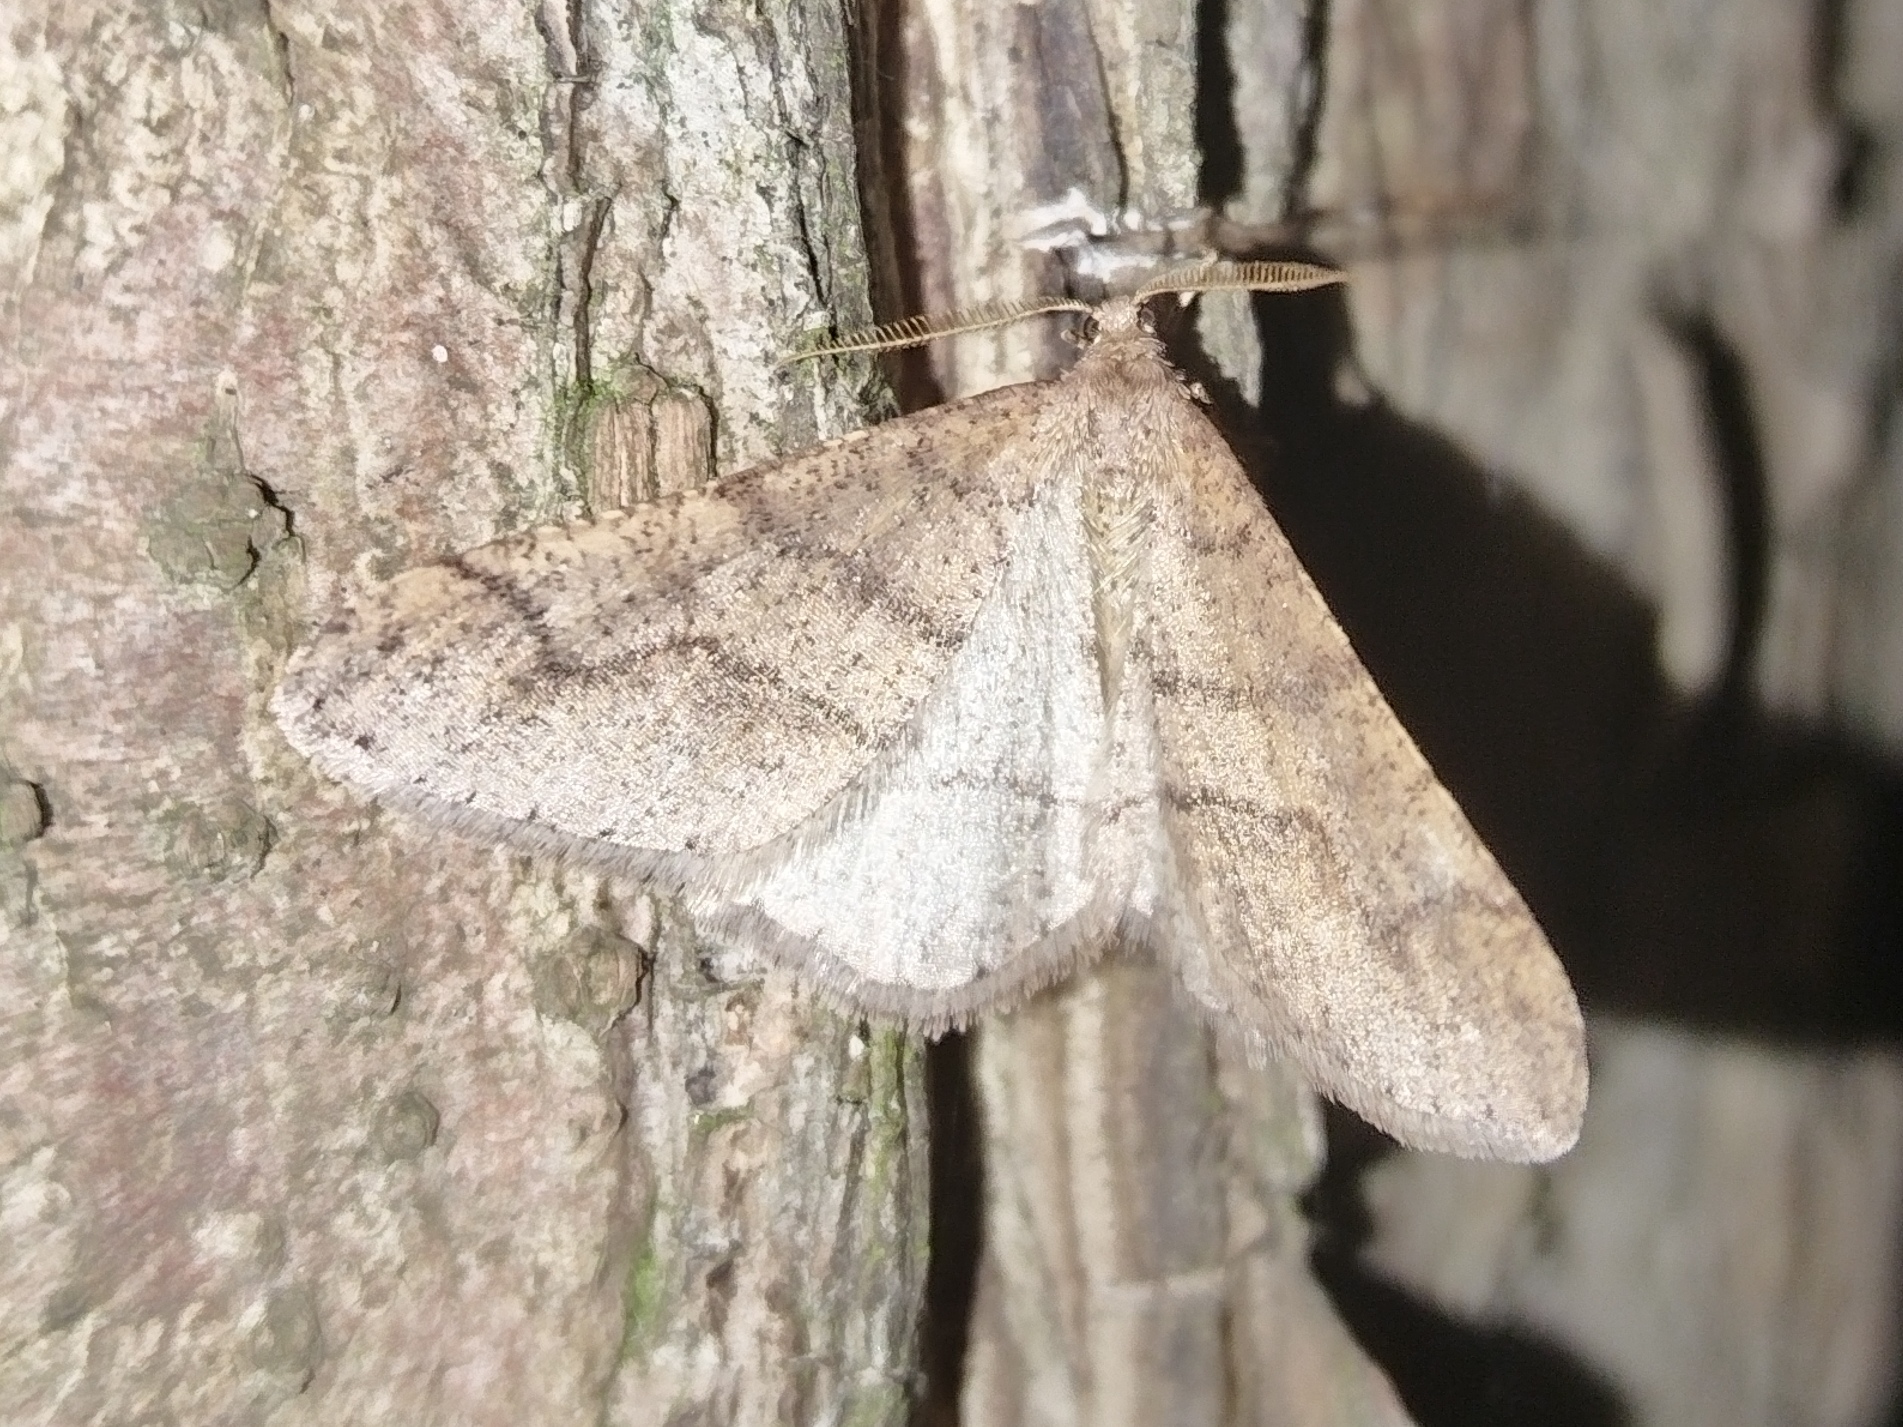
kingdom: Animalia
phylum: Arthropoda
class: Insecta
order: Lepidoptera
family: Geometridae
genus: Agriopis
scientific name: Agriopis marginaria
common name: Dotted border
